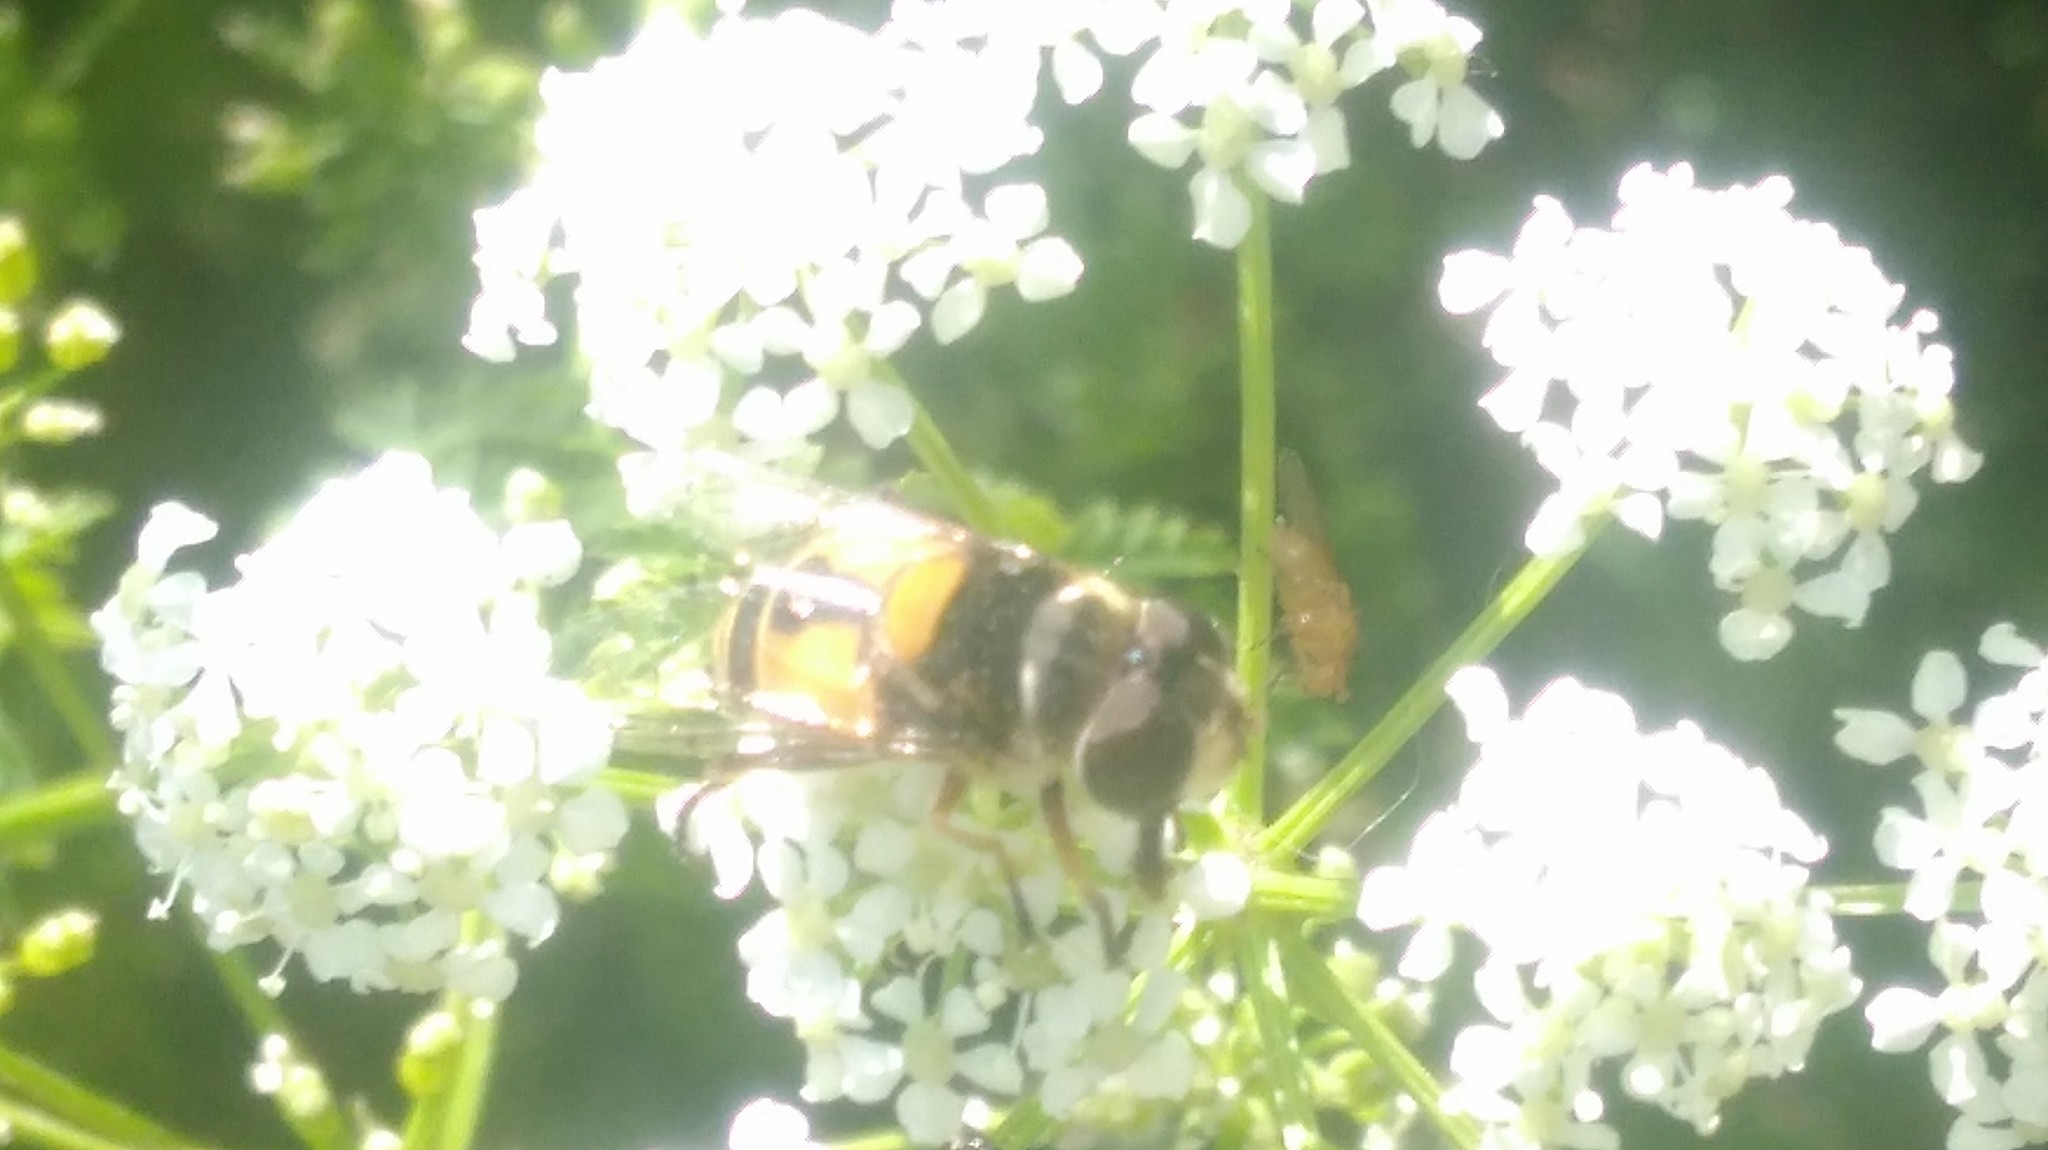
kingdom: Animalia
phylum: Arthropoda
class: Insecta
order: Diptera
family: Syrphidae
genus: Palpada
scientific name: Palpada
